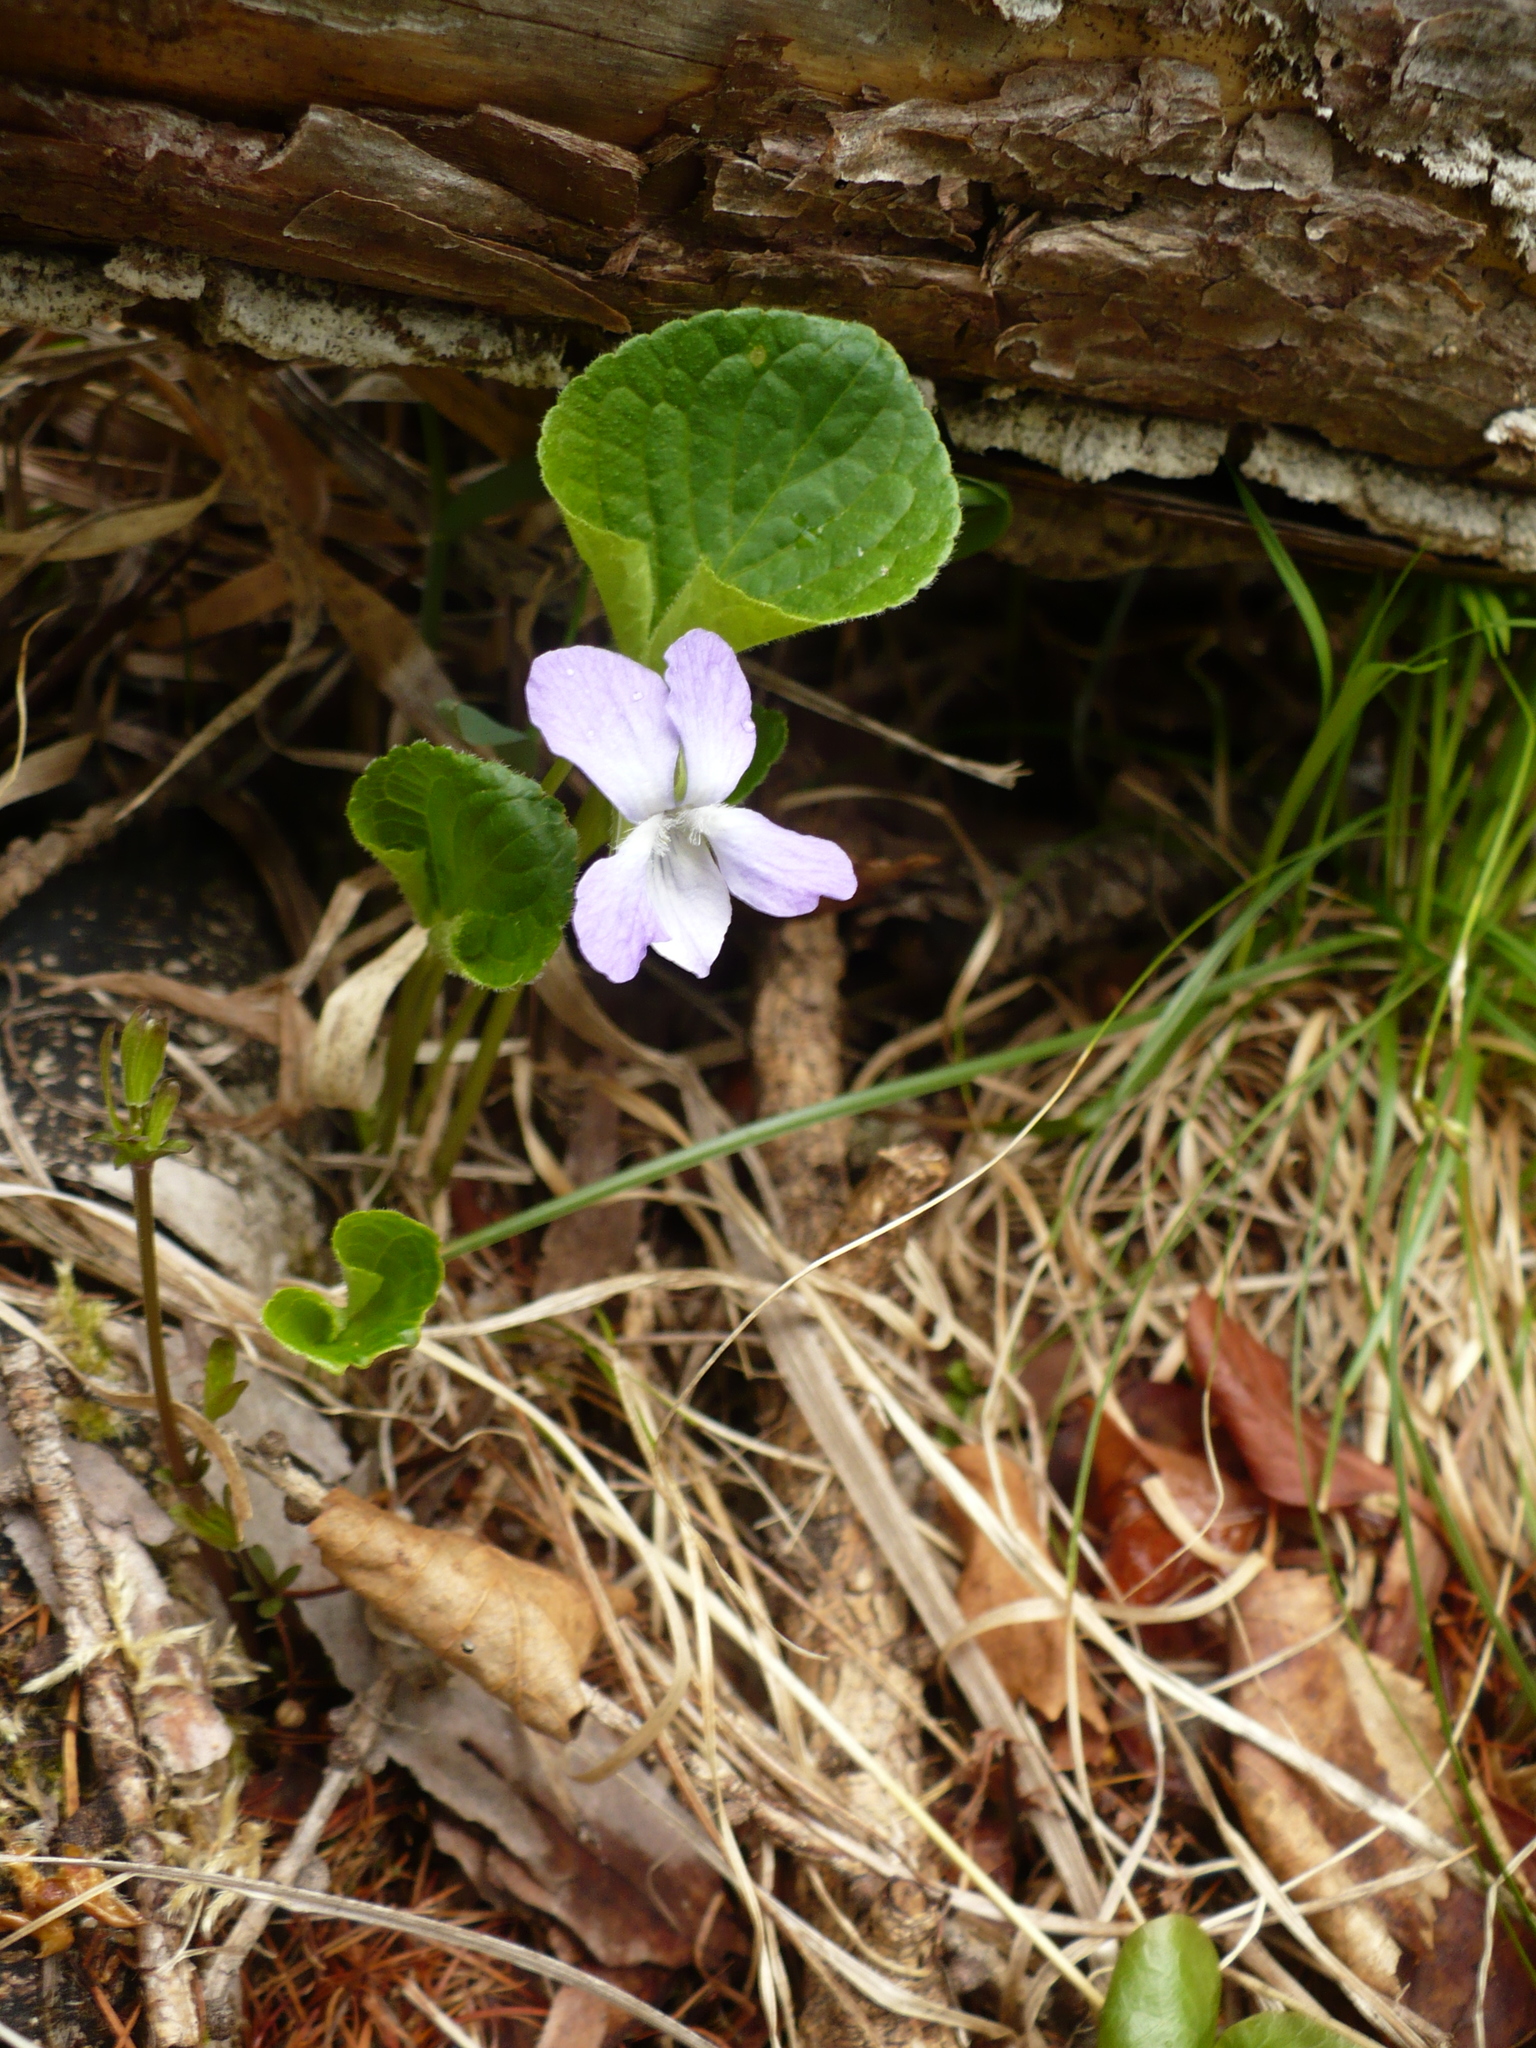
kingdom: Plantae
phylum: Tracheophyta
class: Magnoliopsida
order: Malpighiales
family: Violaceae
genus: Viola
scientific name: Viola mirabilis
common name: Wonder violet
